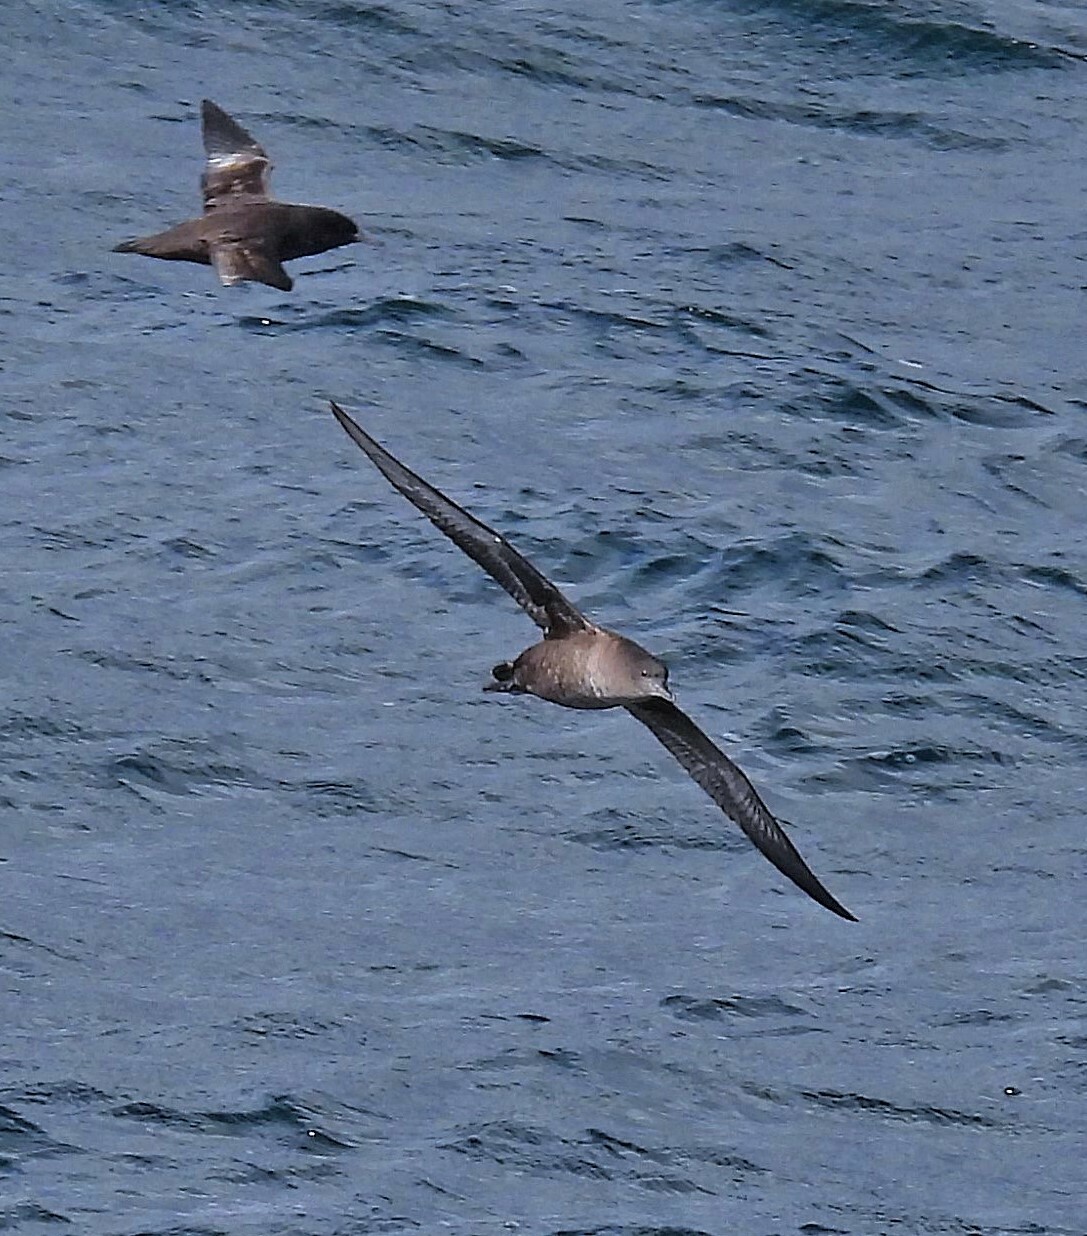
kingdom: Animalia
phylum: Chordata
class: Aves
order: Procellariiformes
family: Procellariidae
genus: Puffinus
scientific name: Puffinus griseus
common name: Sooty shearwater
